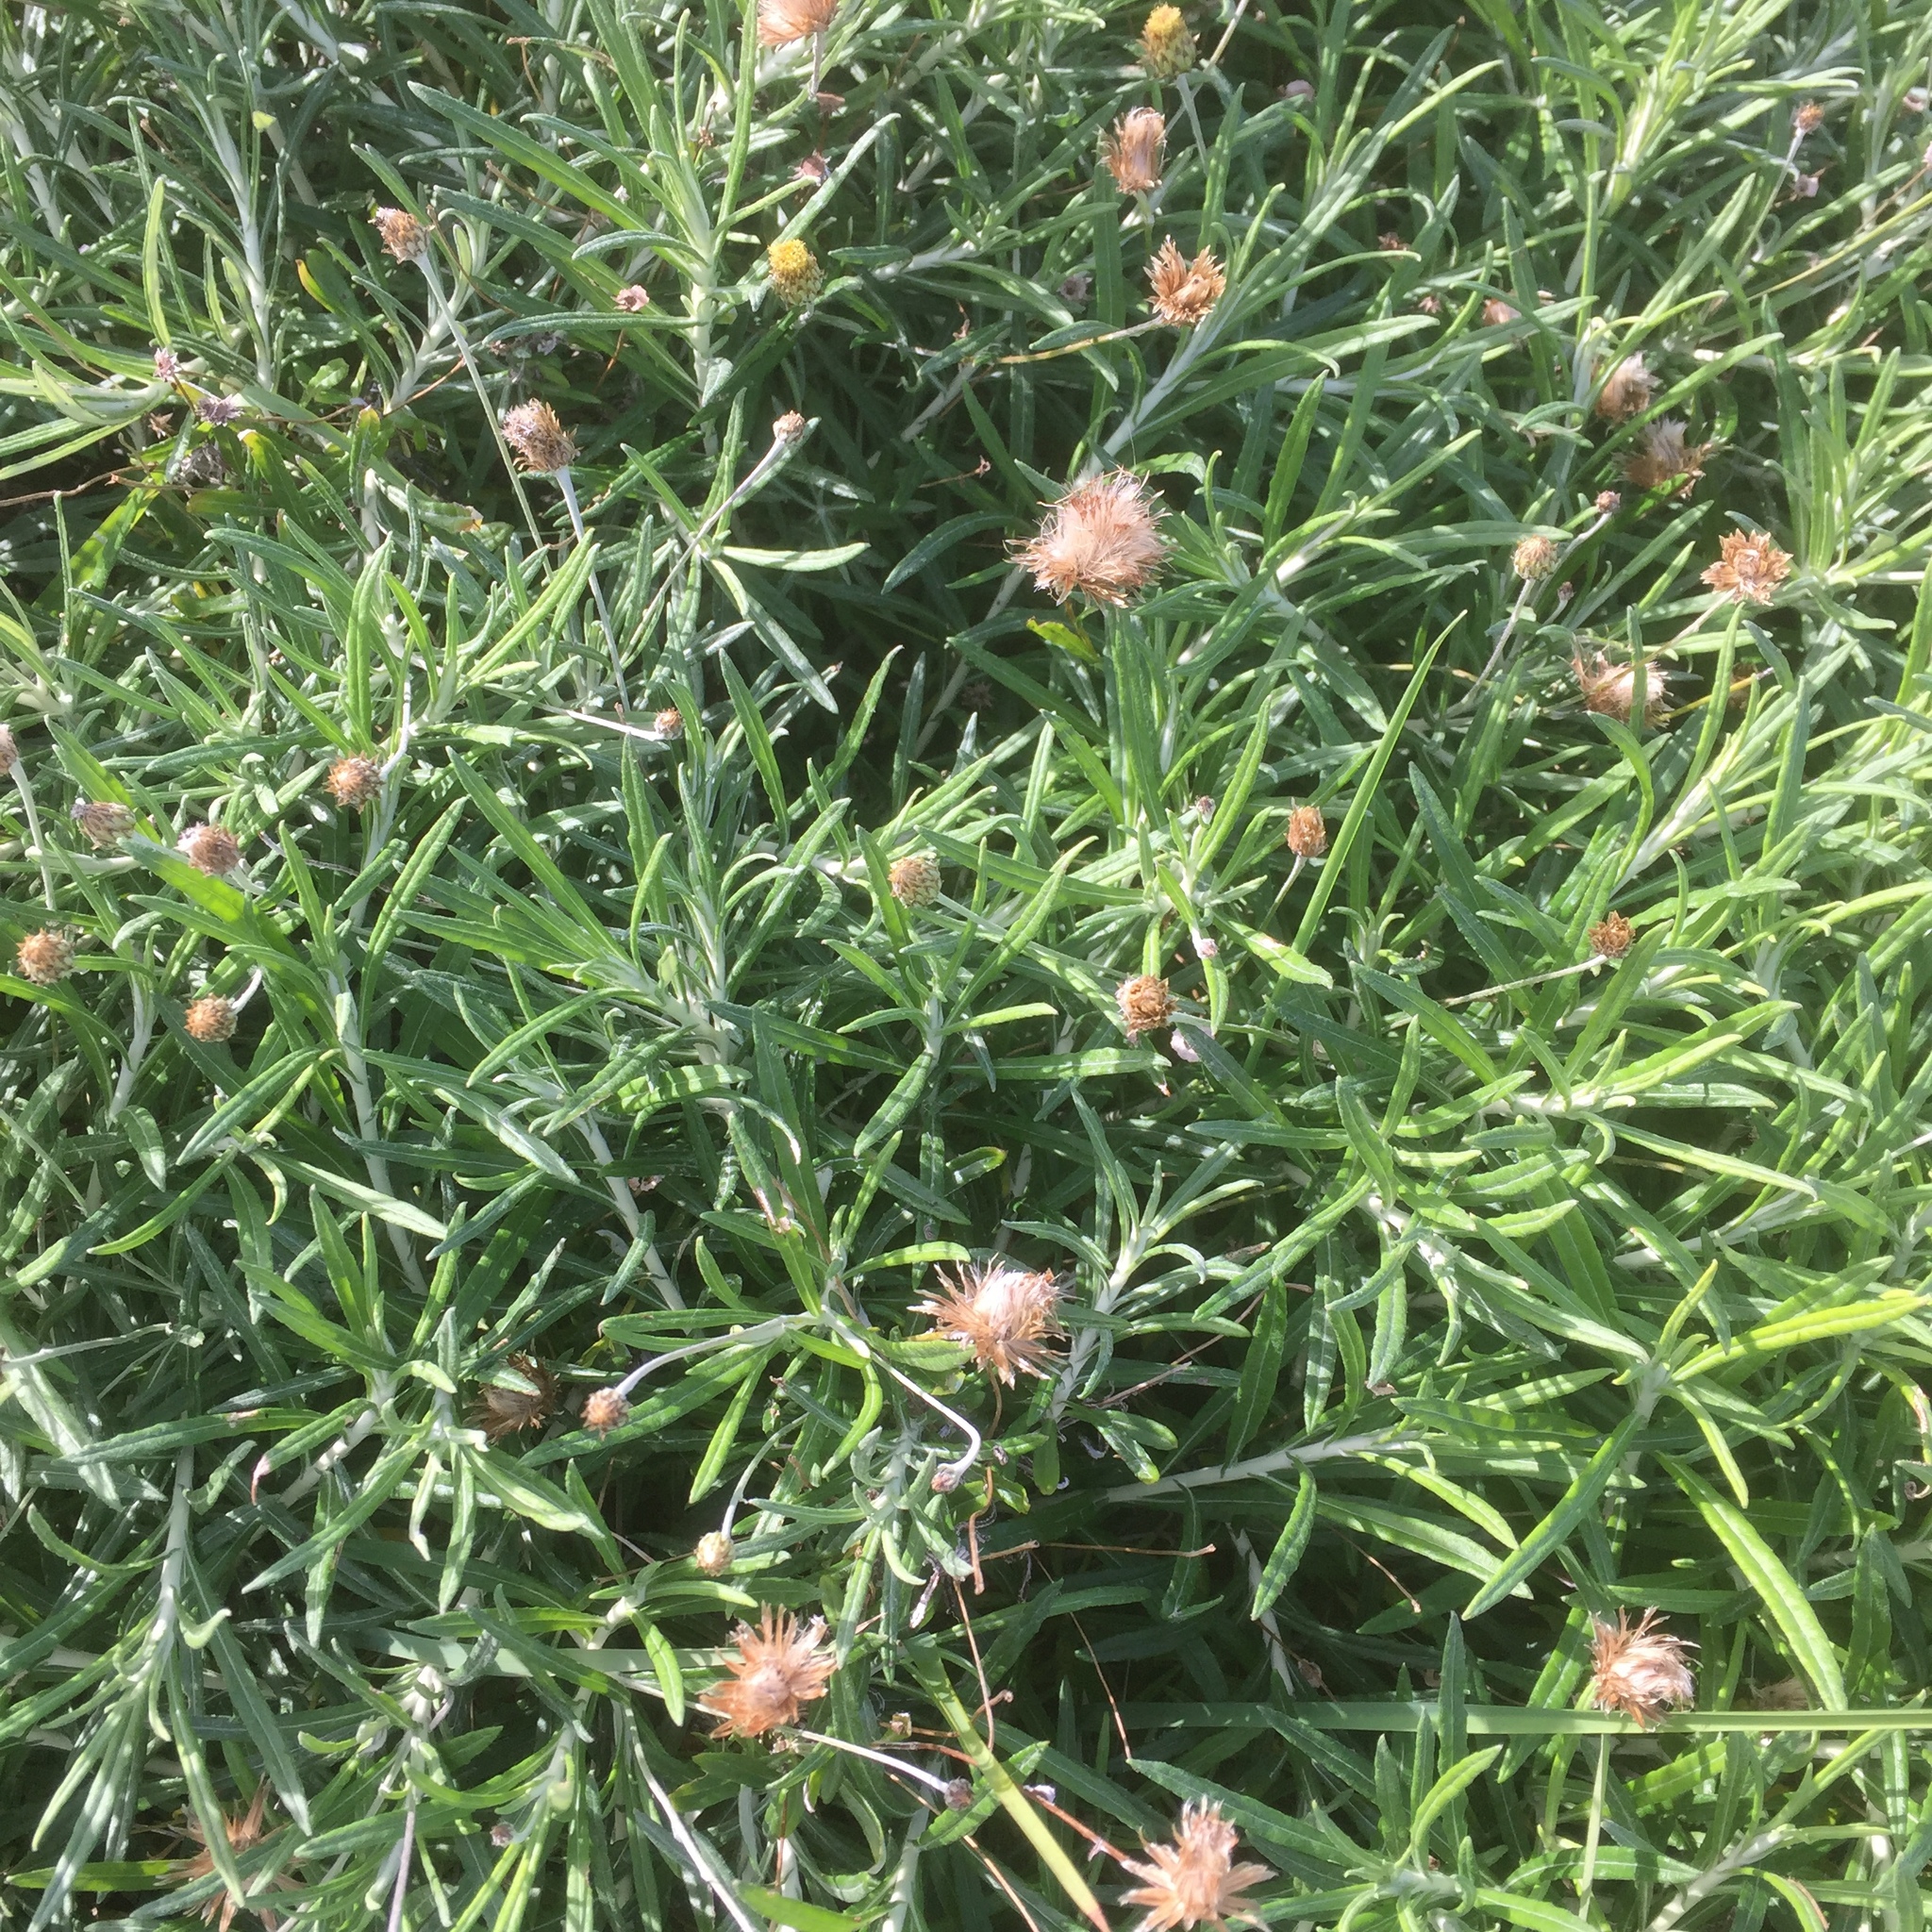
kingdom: Plantae
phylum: Tracheophyta
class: Magnoliopsida
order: Asterales
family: Asteraceae
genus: Phagnalon
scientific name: Phagnalon saxatile
